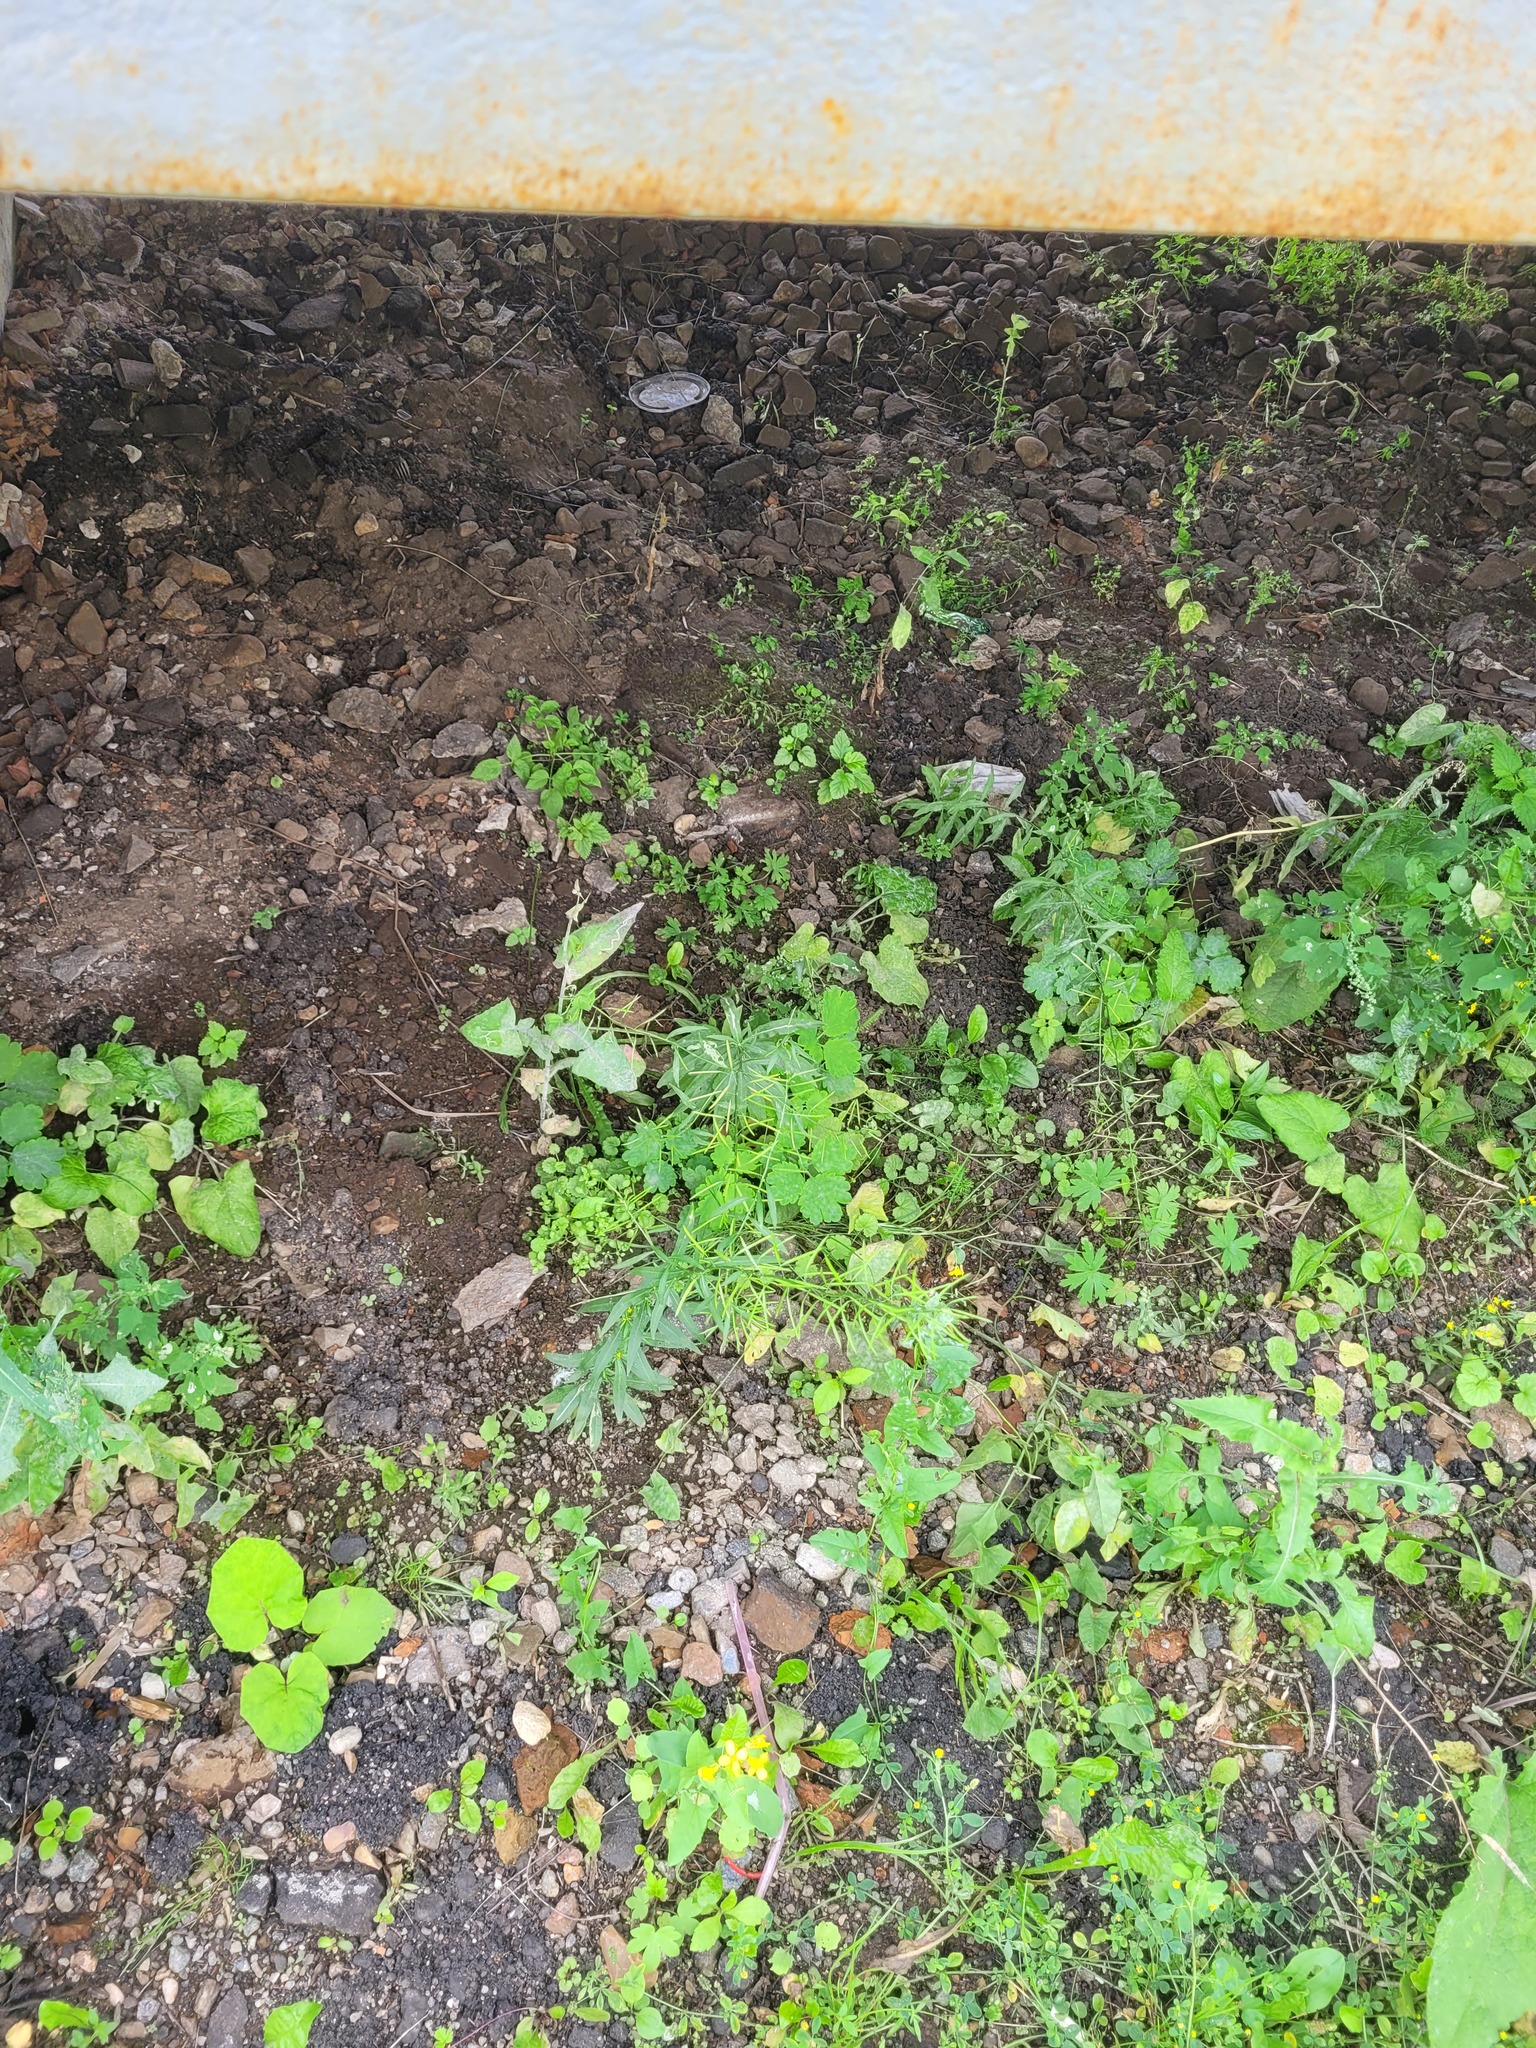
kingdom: Plantae
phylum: Tracheophyta
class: Magnoliopsida
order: Brassicales
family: Brassicaceae
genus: Erysimum
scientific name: Erysimum cheiranthoides
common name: Treacle mustard
